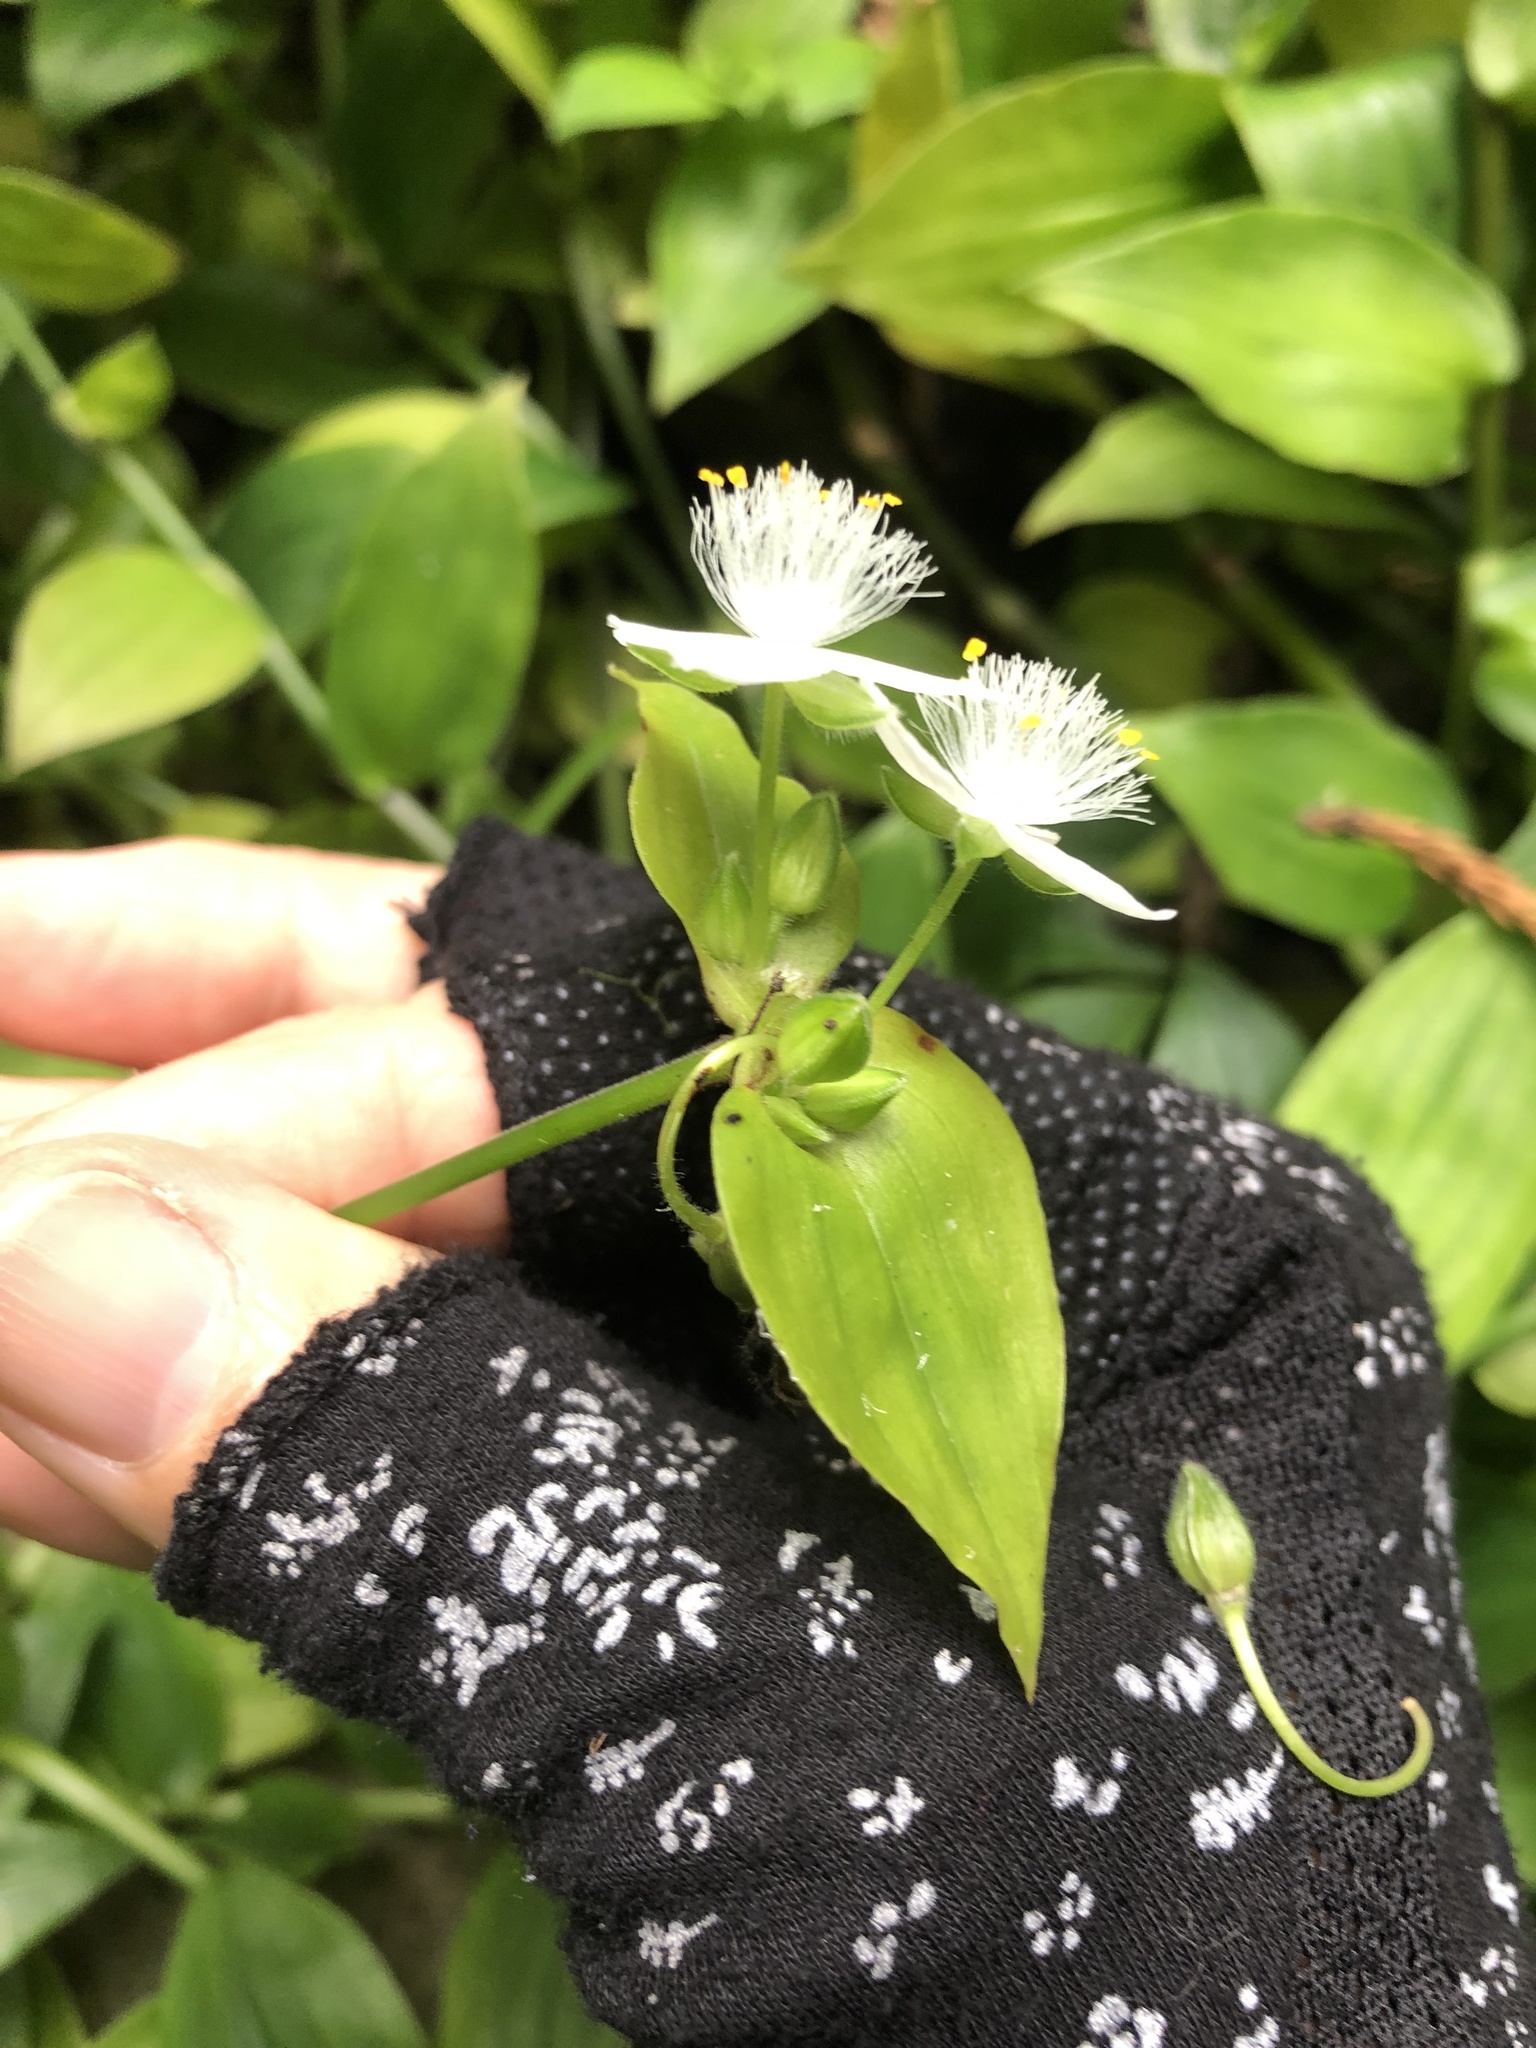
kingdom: Plantae
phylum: Tracheophyta
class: Liliopsida
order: Commelinales
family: Commelinaceae
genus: Tradescantia
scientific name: Tradescantia fluminensis
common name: Wandering-jew
